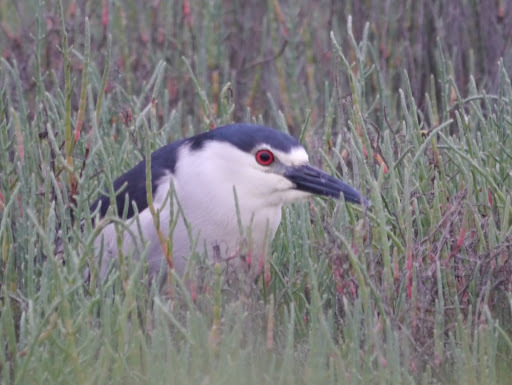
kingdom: Animalia
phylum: Chordata
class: Aves
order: Pelecaniformes
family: Ardeidae
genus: Nycticorax
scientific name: Nycticorax nycticorax
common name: Black-crowned night heron
